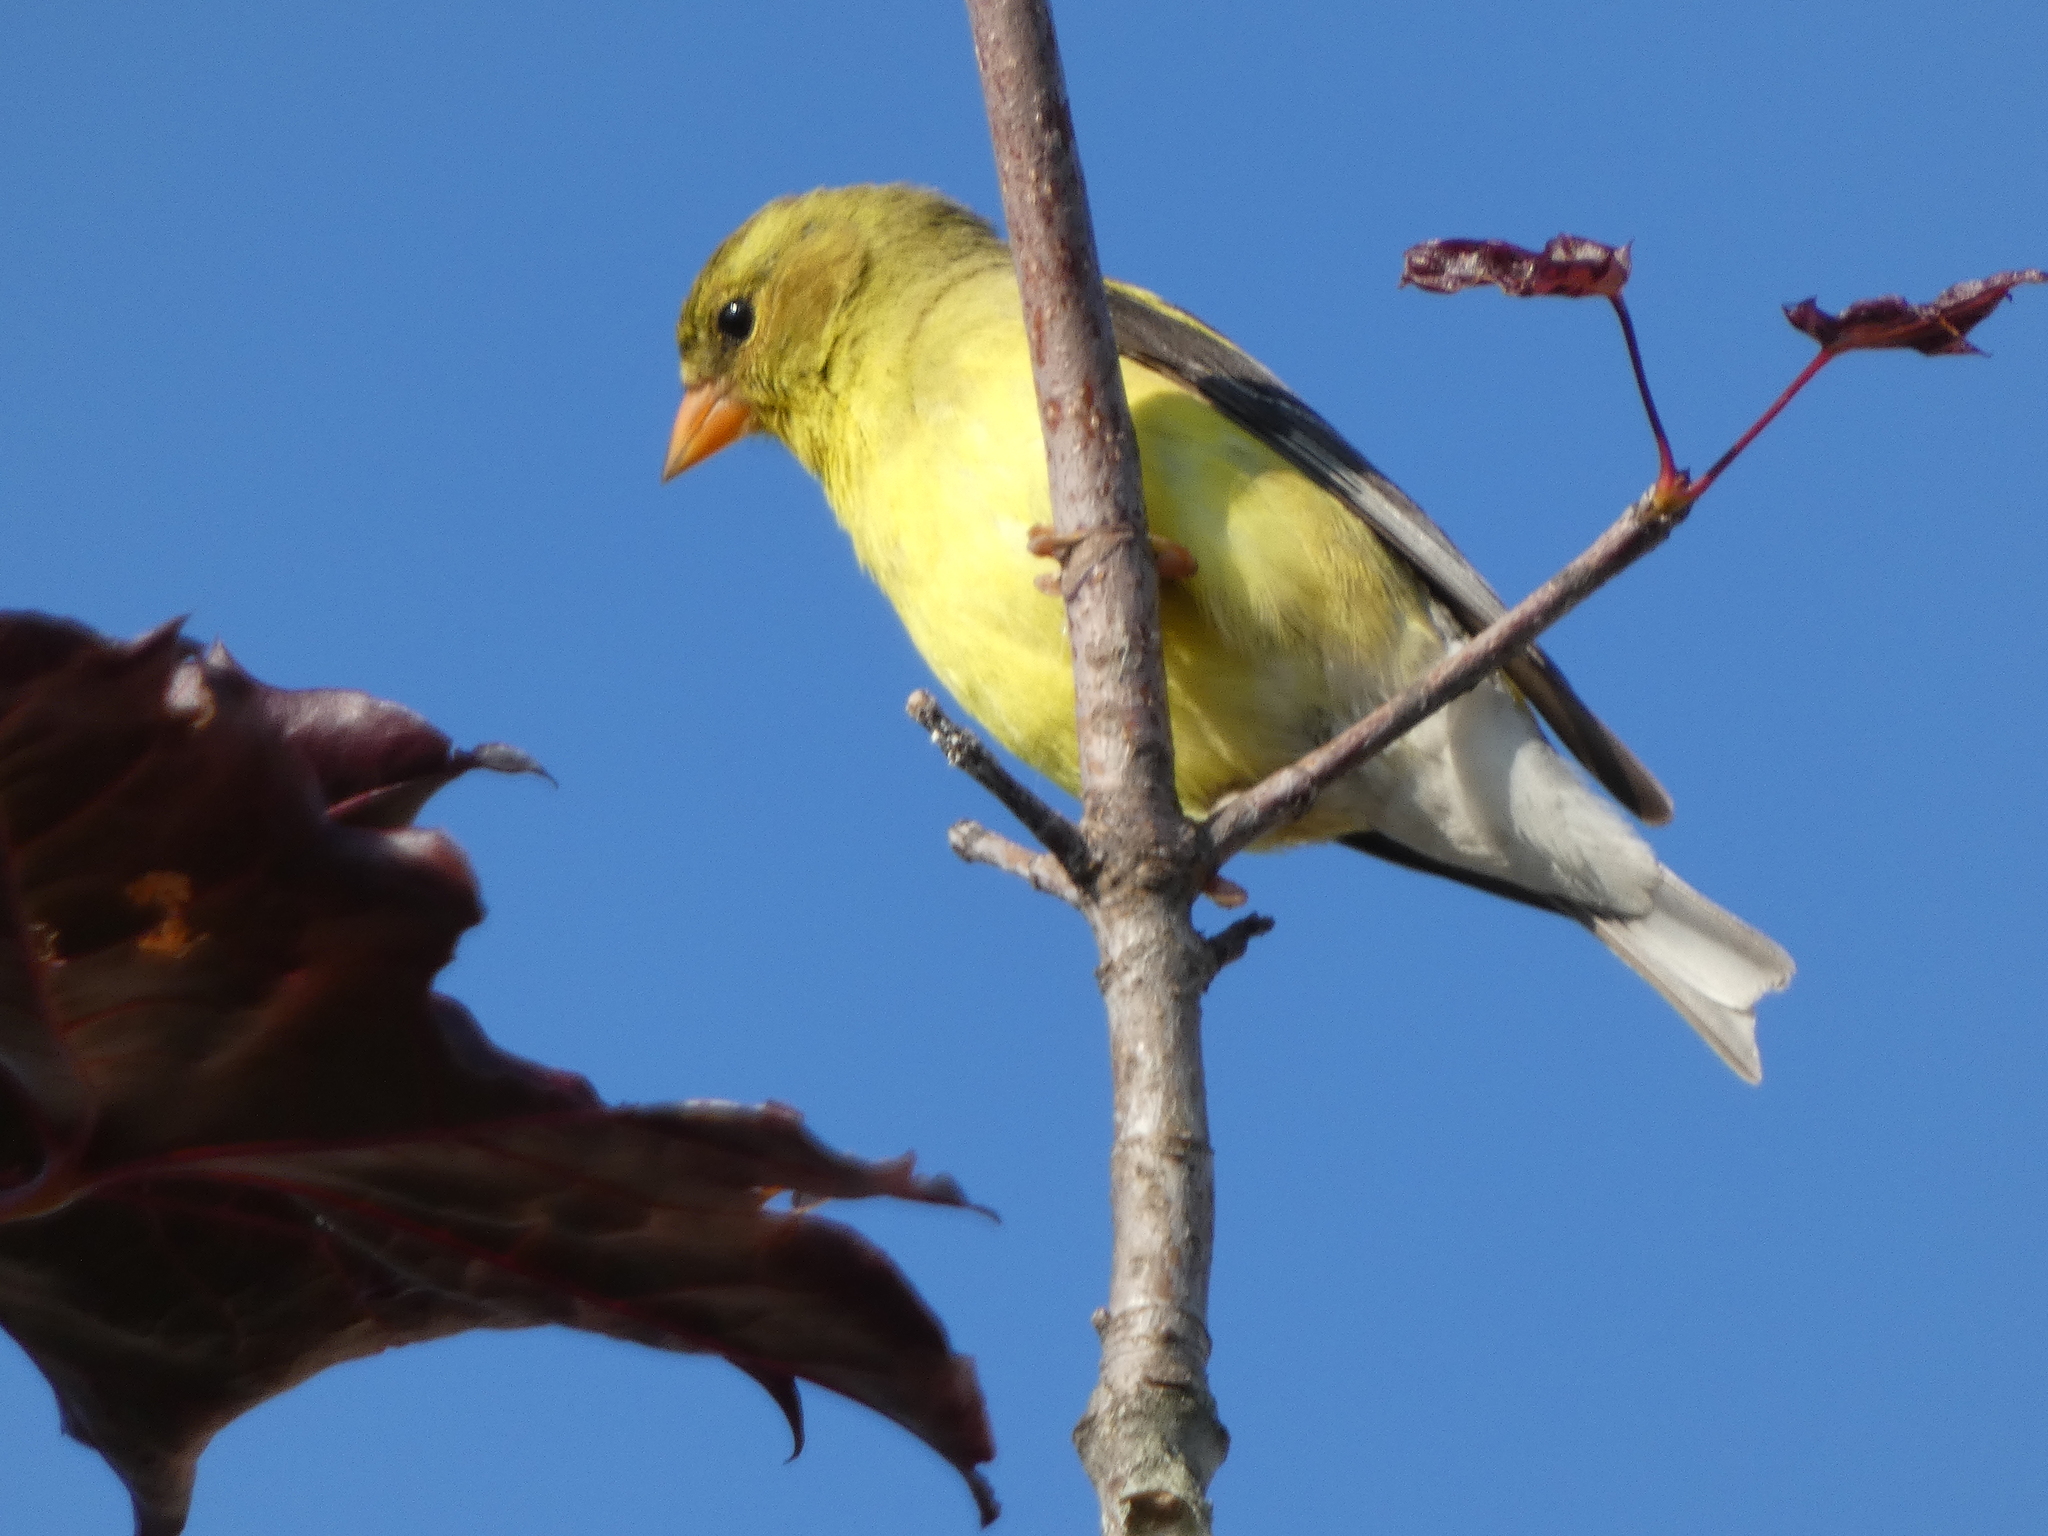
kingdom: Animalia
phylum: Chordata
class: Aves
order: Passeriformes
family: Fringillidae
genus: Spinus
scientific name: Spinus tristis
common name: American goldfinch
